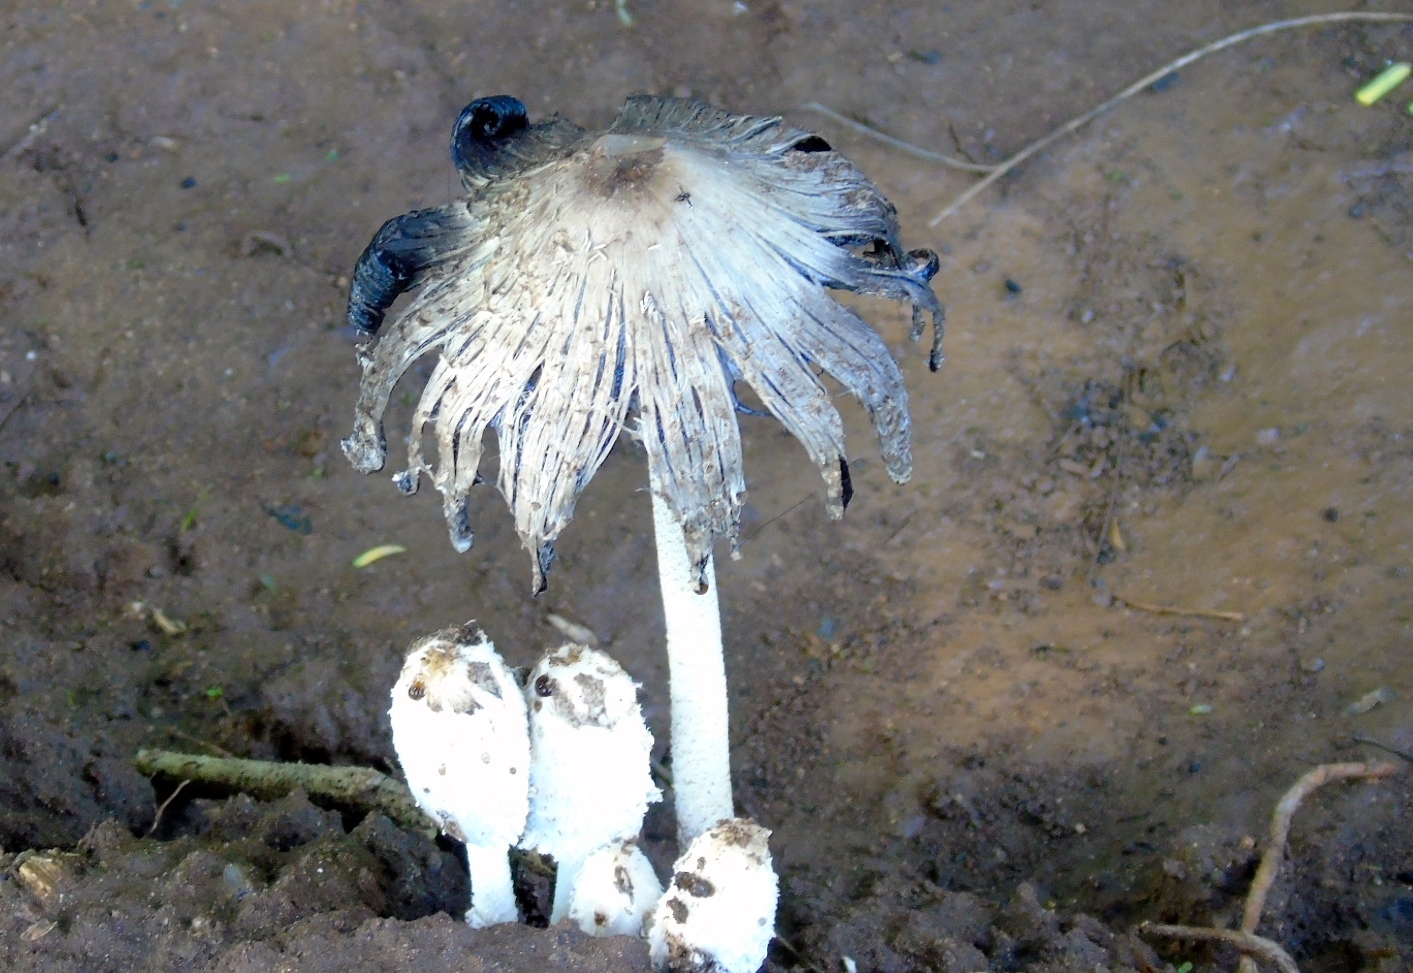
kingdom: Fungi
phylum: Basidiomycota
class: Agaricomycetes
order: Agaricales
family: Agaricaceae
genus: Coprinus
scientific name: Coprinus
